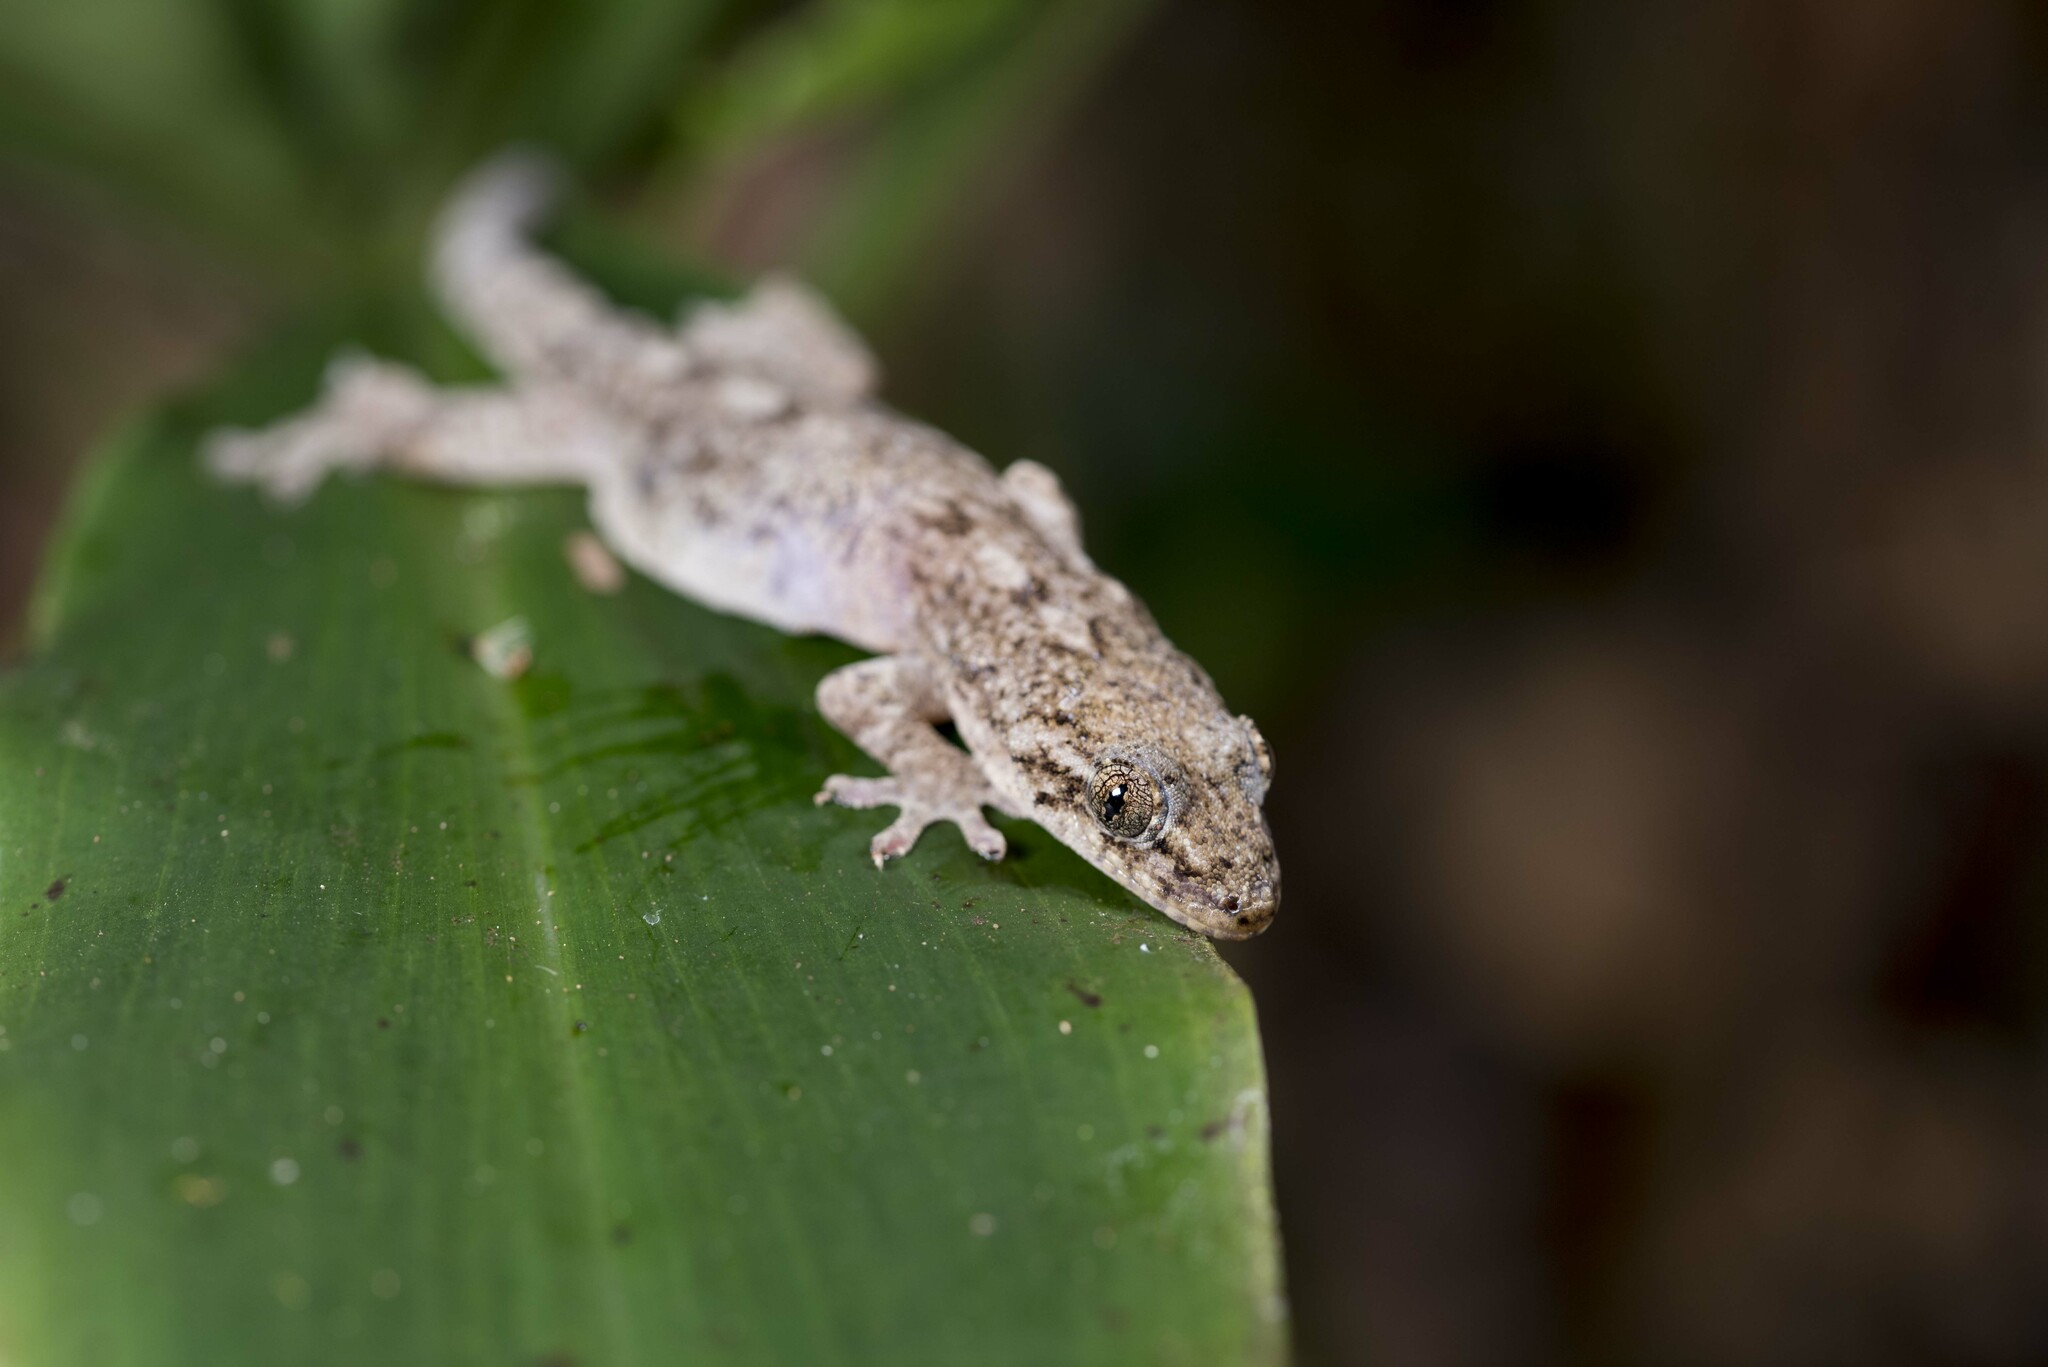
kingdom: Animalia
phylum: Chordata
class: Squamata
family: Gekkonidae
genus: Gekko
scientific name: Gekko hokouensis
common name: Kwangsi gecko
